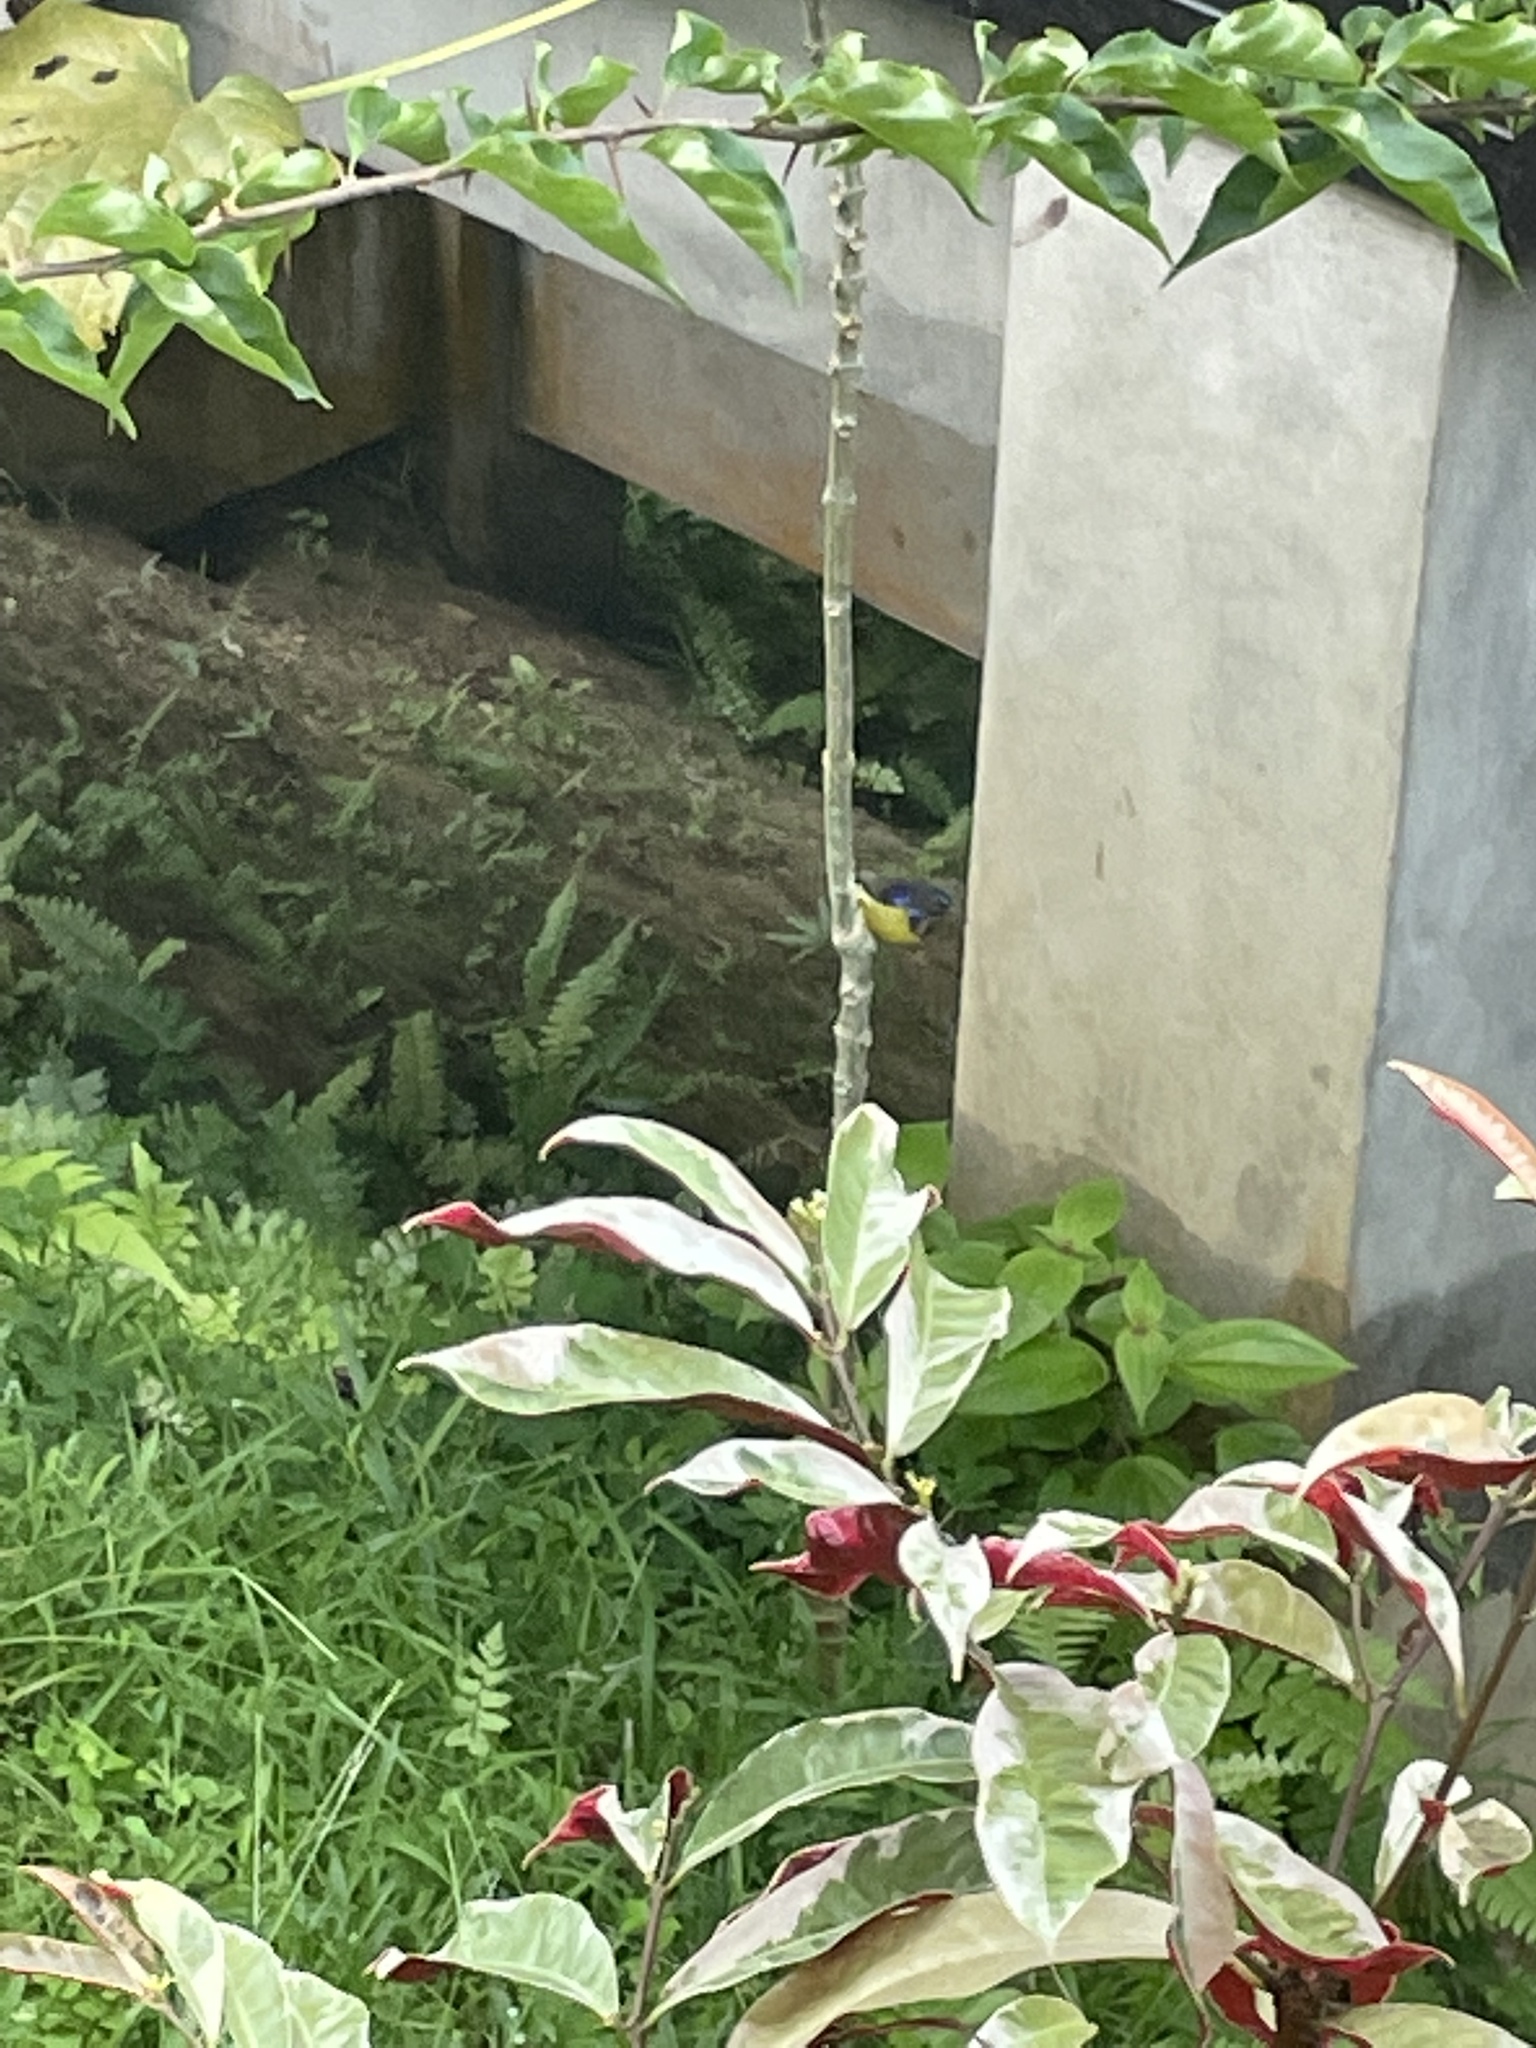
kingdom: Animalia
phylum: Chordata
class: Aves
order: Passeriformes
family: Nectariniidae
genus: Anthreptes
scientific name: Anthreptes malacensis
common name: Brown-throated sunbird
